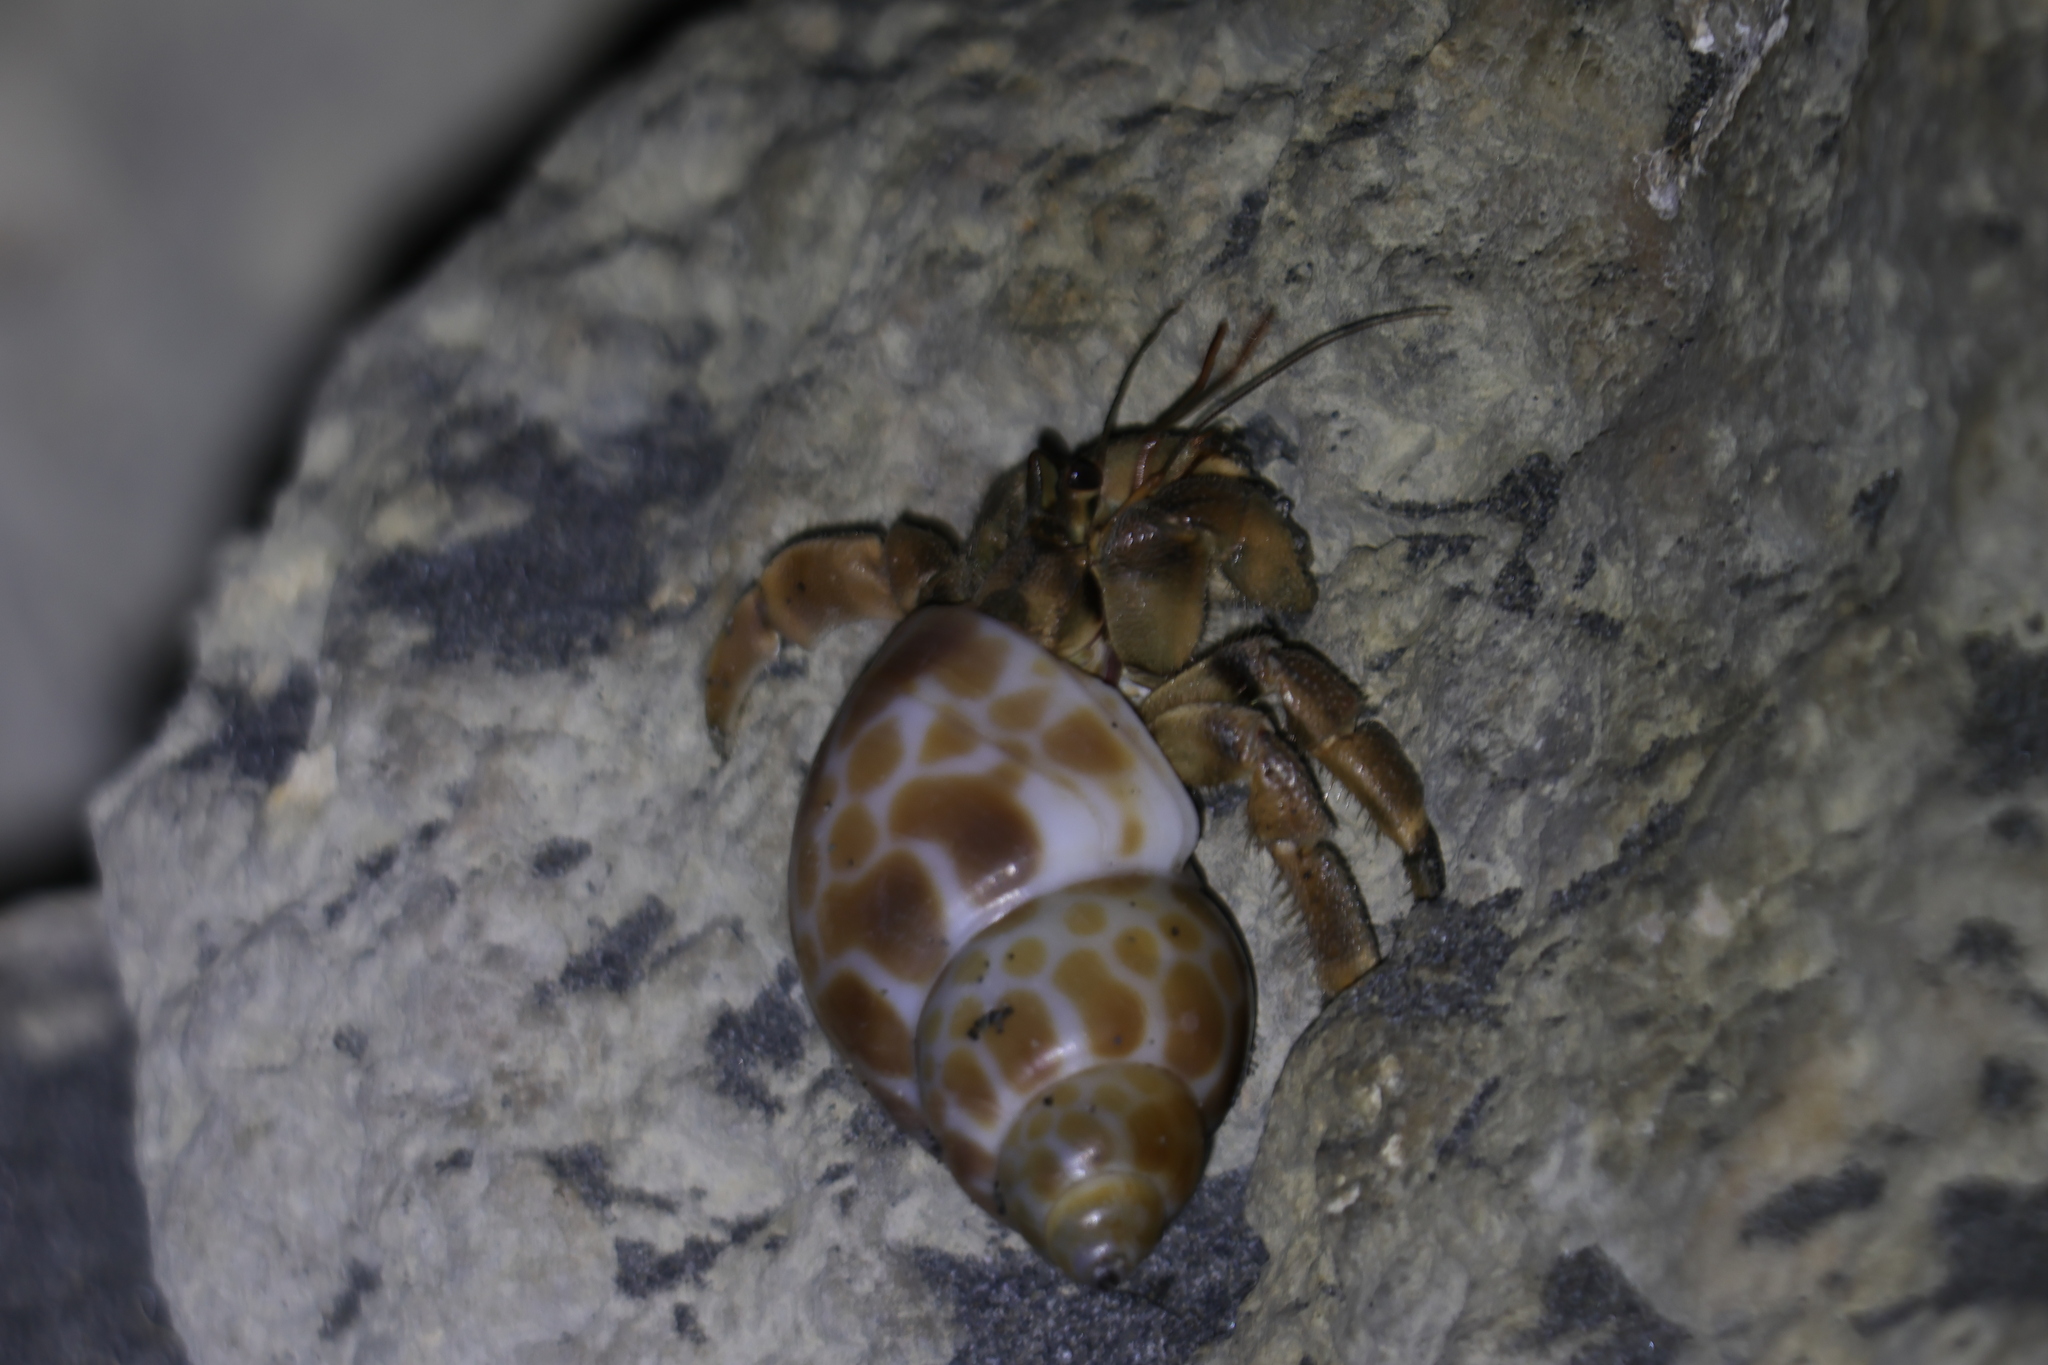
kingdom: Animalia
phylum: Arthropoda
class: Malacostraca
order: Decapoda
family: Coenobitidae
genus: Coenobita
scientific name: Coenobita rugosus
